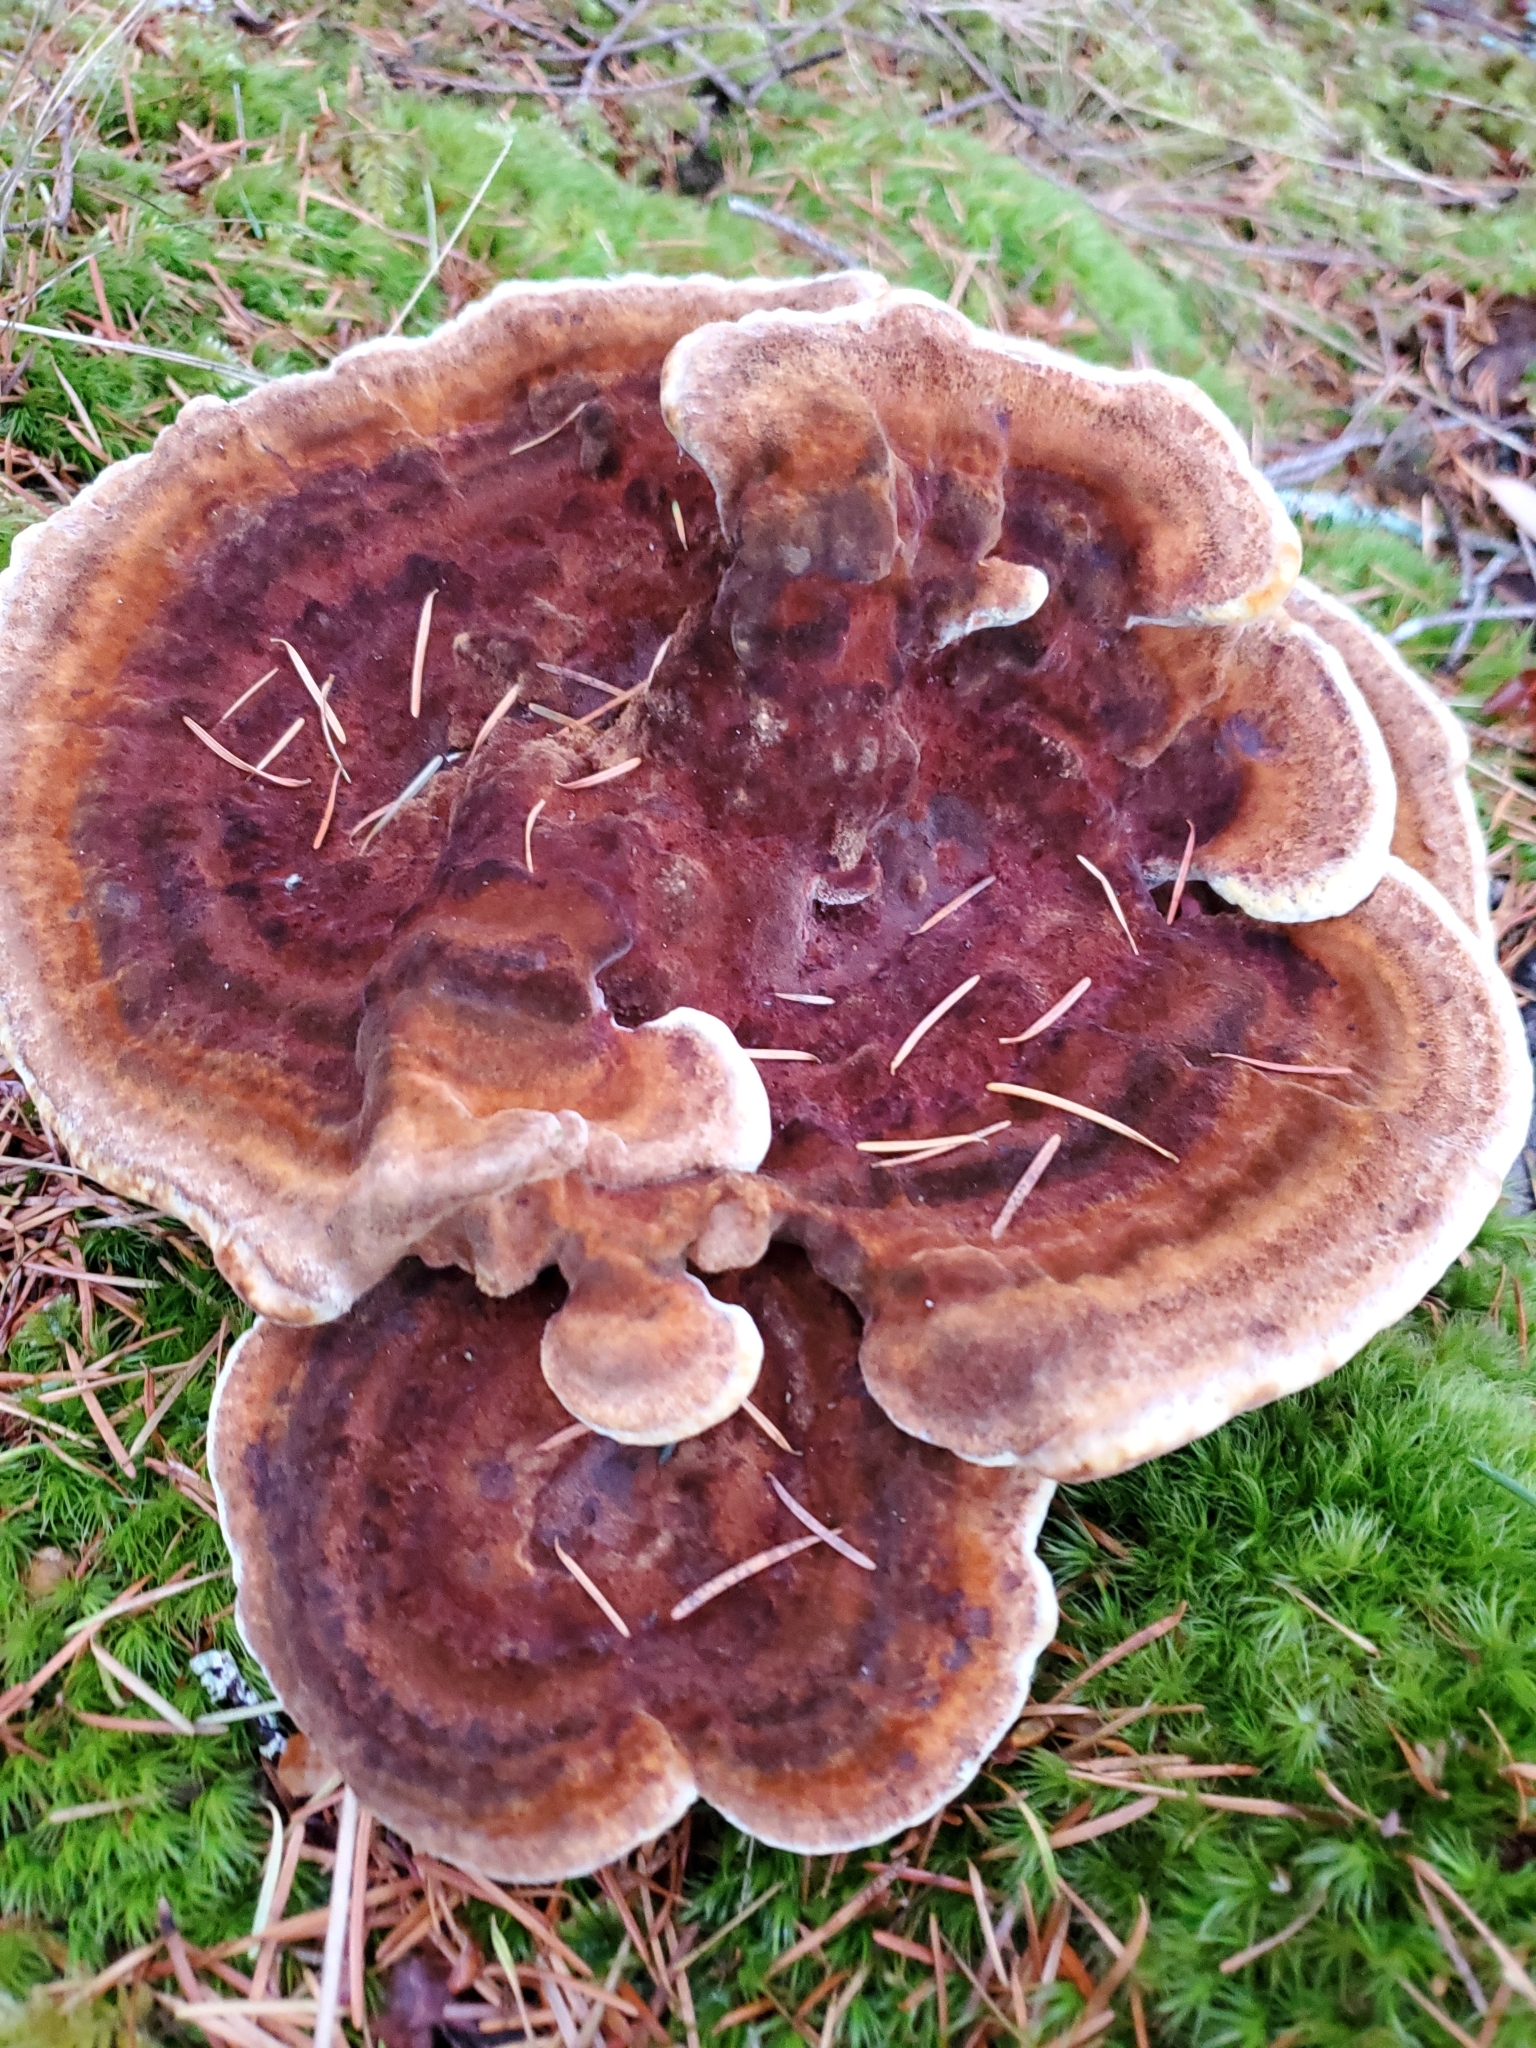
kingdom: Fungi
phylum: Basidiomycota
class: Agaricomycetes
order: Polyporales
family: Laetiporaceae
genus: Phaeolus
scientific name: Phaeolus schweinitzii
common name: Dyer's mazegill
